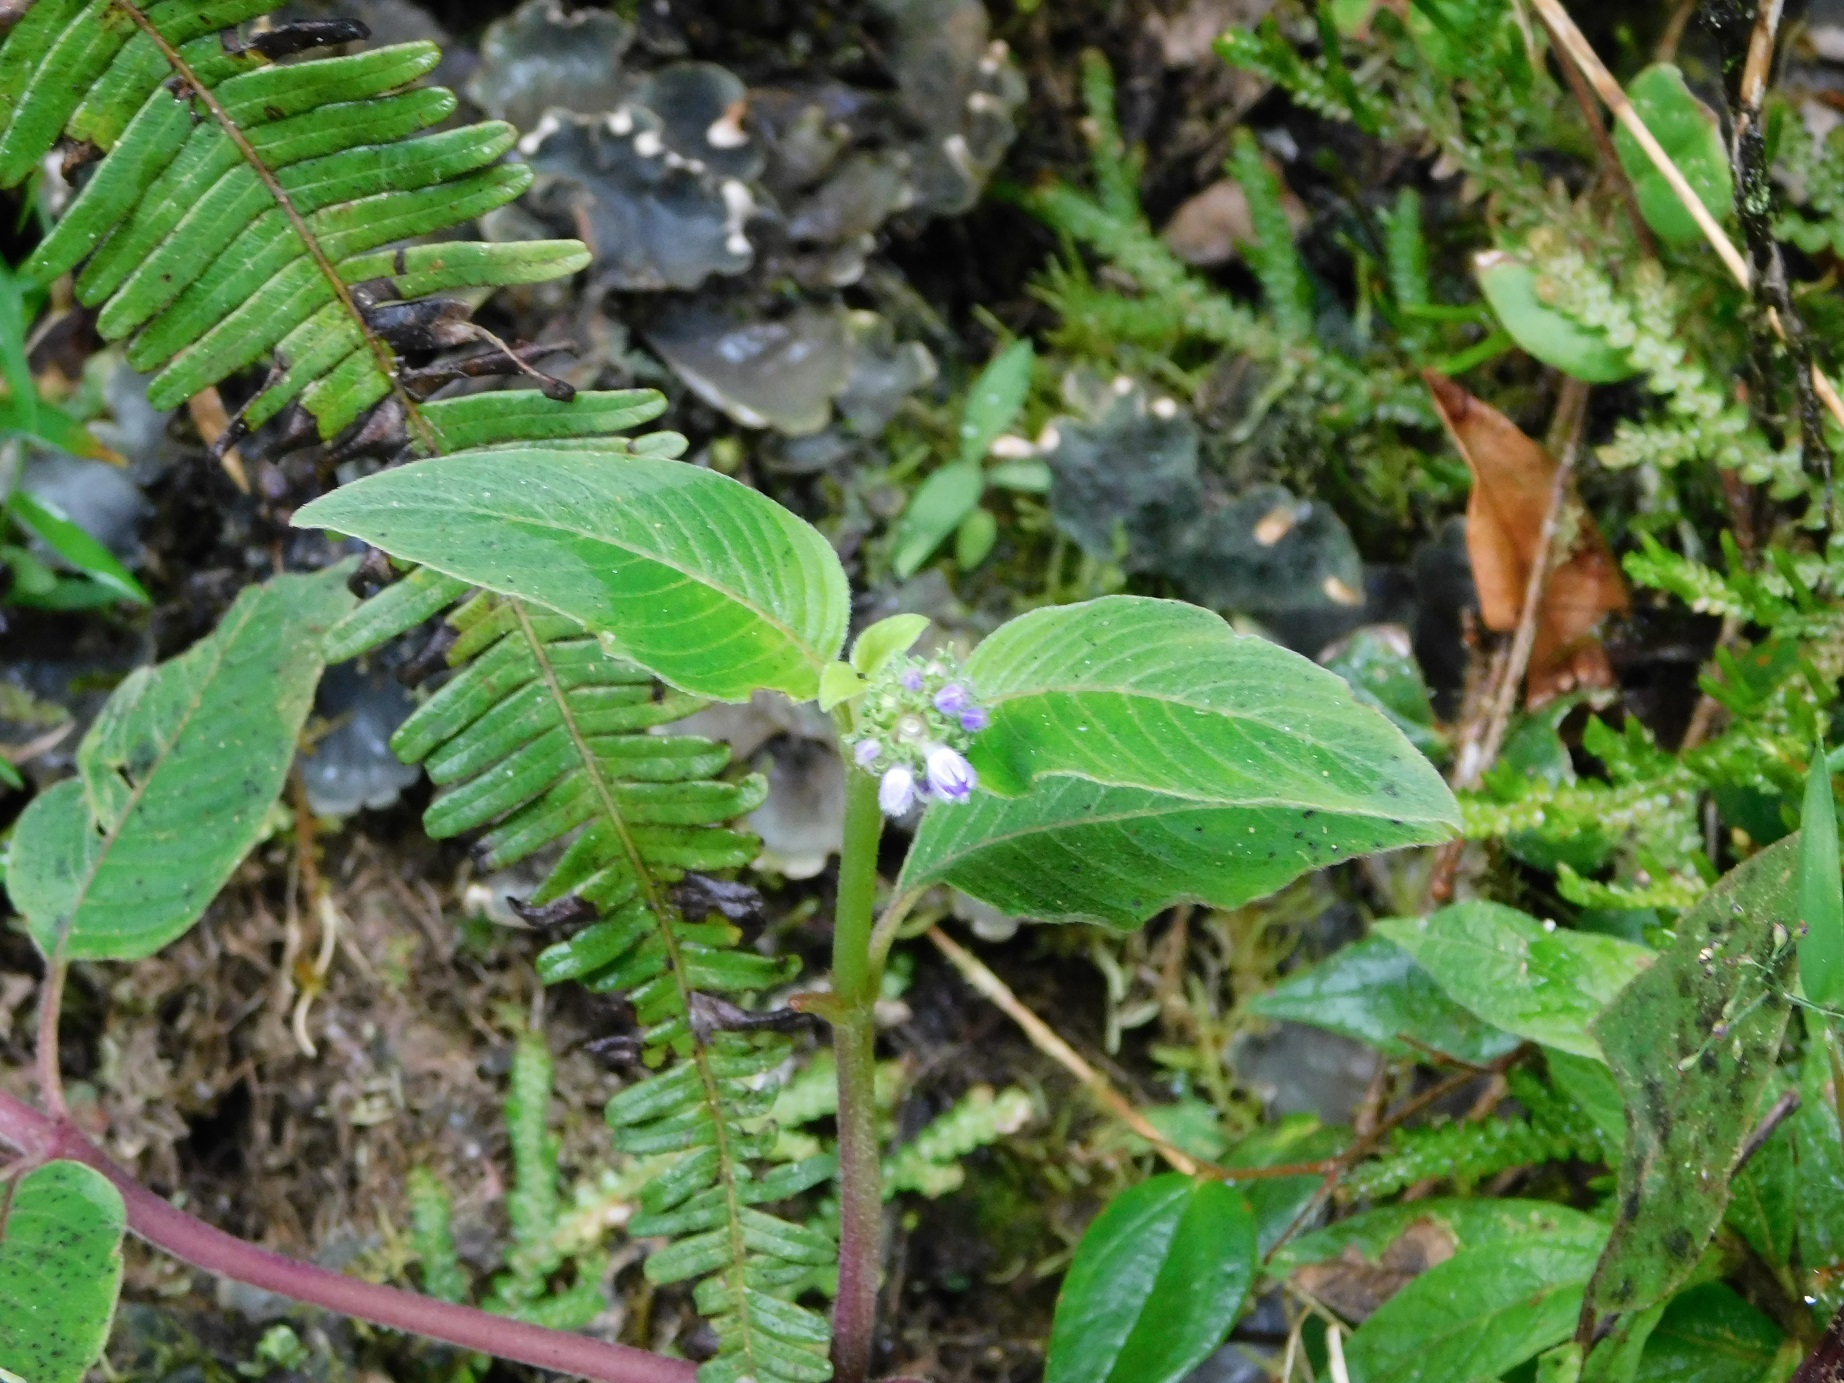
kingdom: Plantae
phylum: Tracheophyta
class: Magnoliopsida
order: Gentianales
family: Rubiaceae
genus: Coccocypselum
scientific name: Coccocypselum lanceolatum
